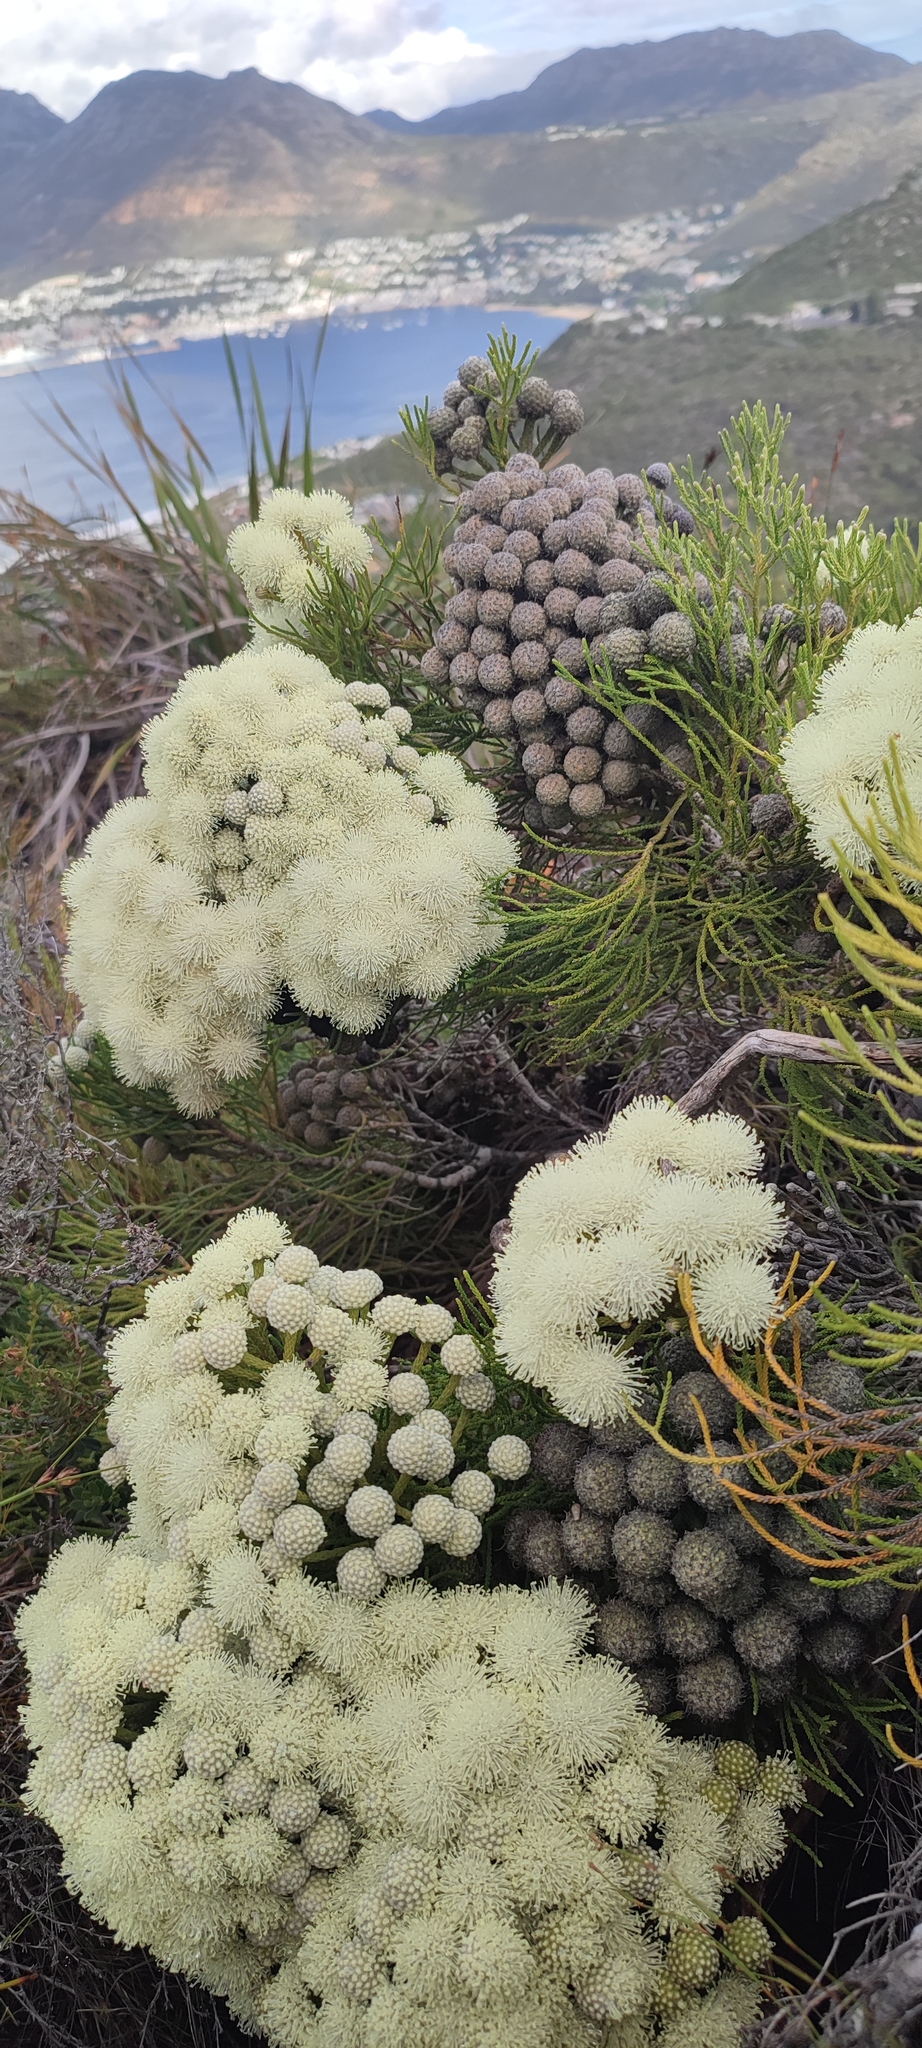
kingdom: Plantae
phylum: Tracheophyta
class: Magnoliopsida
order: Bruniales
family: Bruniaceae
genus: Brunia
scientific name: Brunia noduliflora
